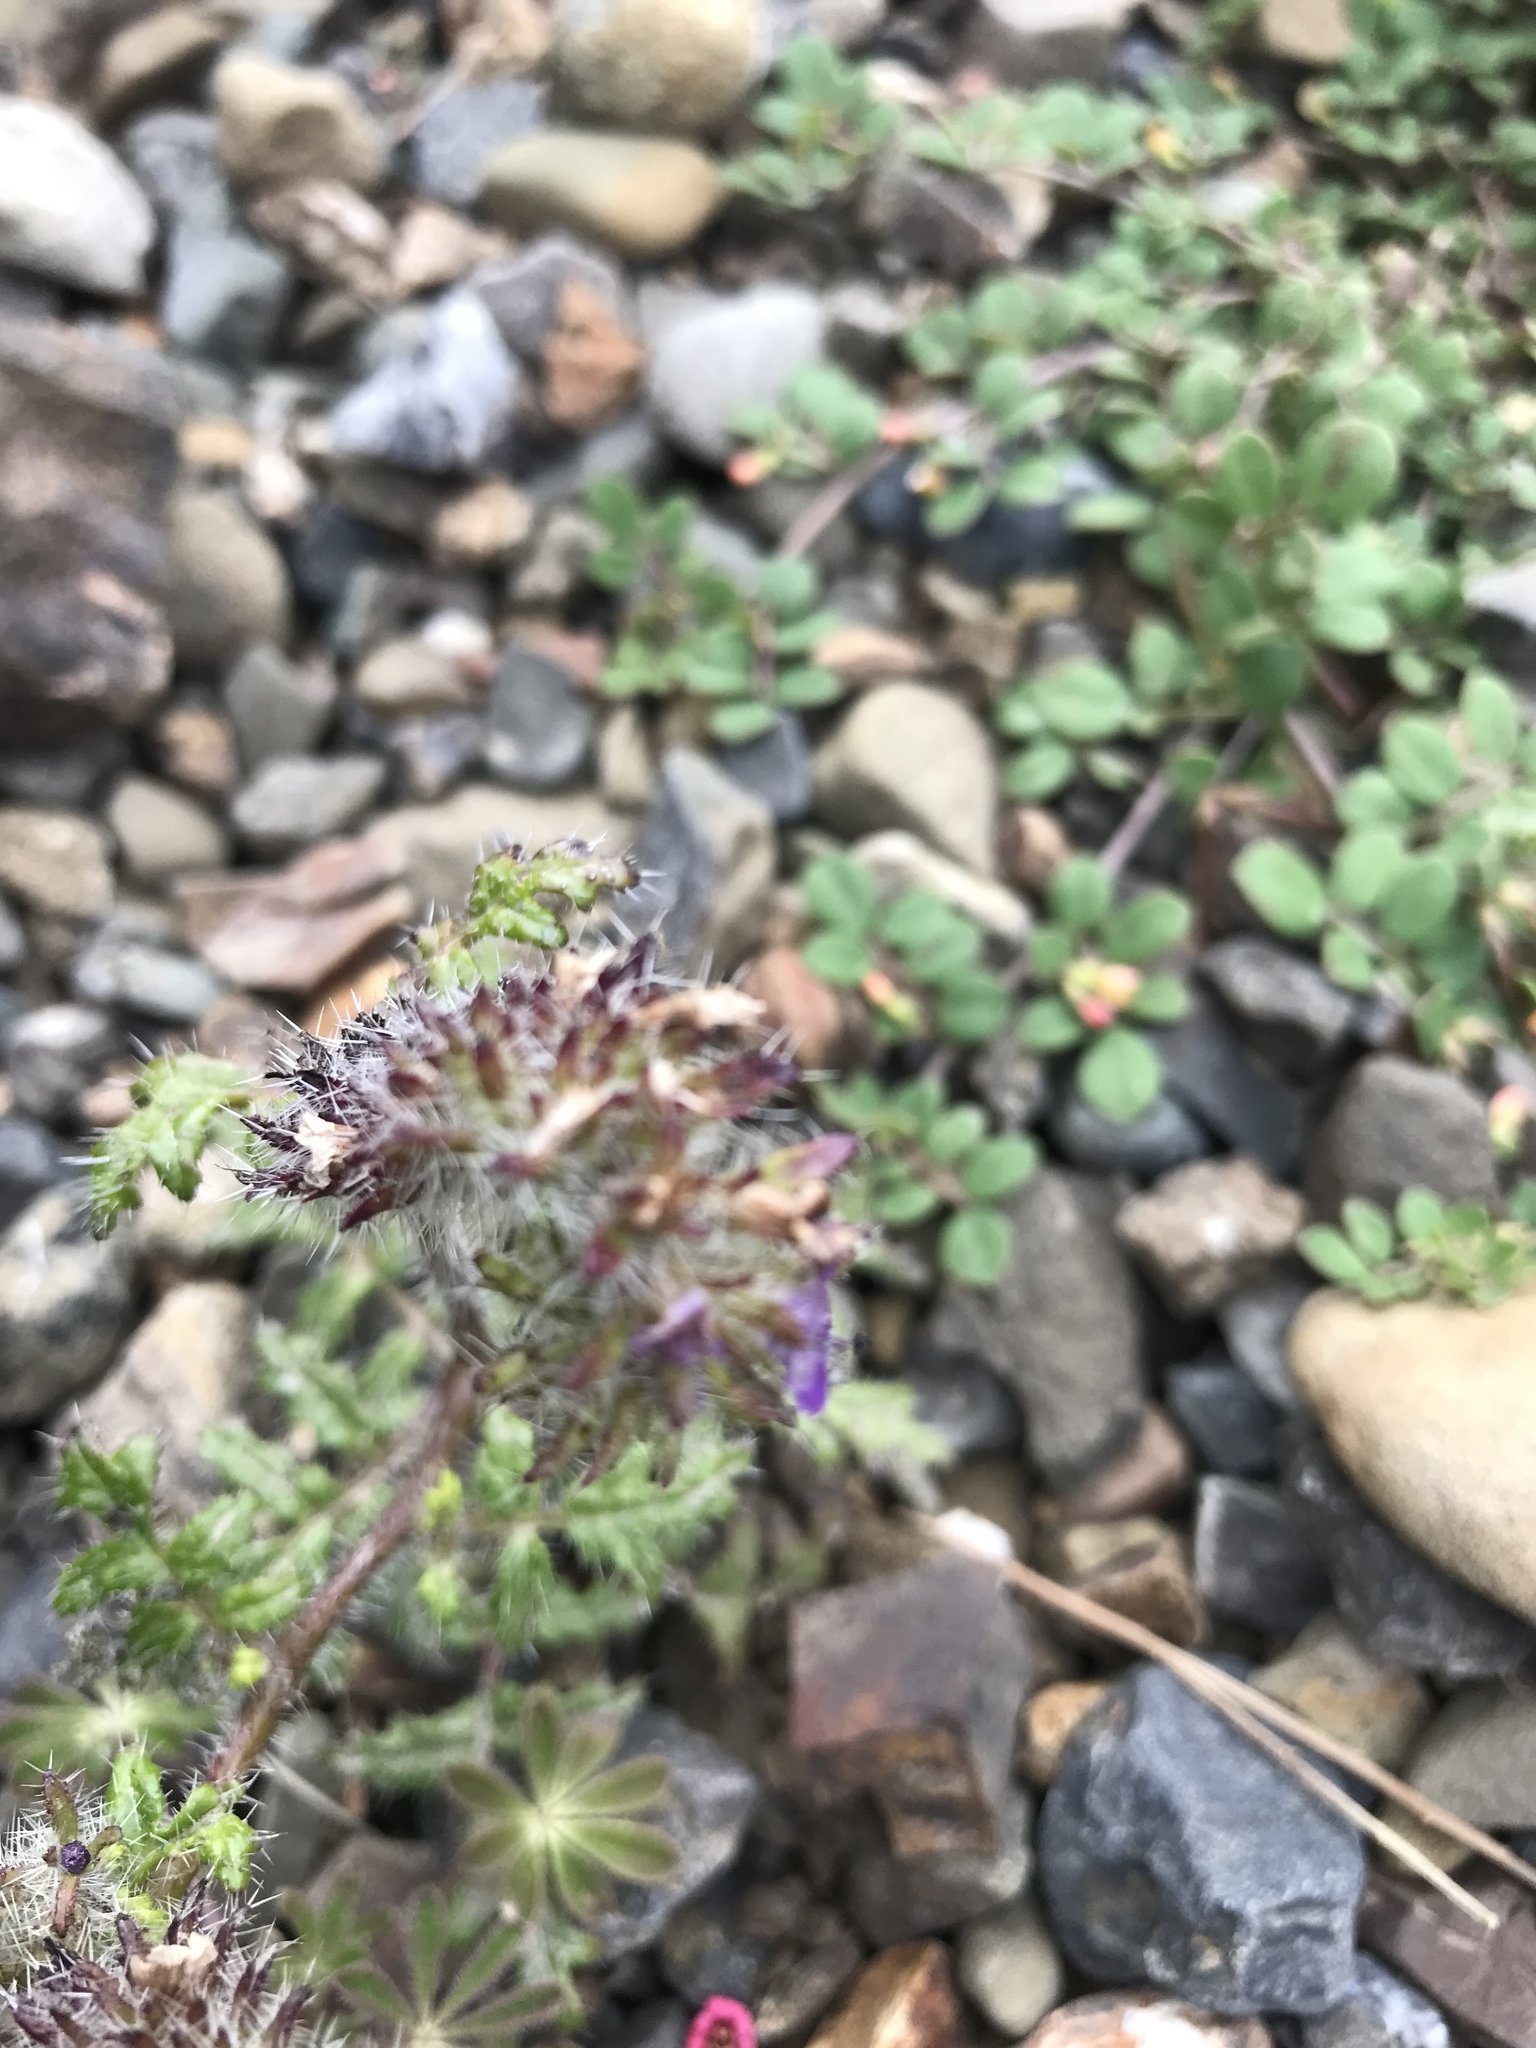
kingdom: Plantae
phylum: Tracheophyta
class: Magnoliopsida
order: Boraginales
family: Hydrophyllaceae
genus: Phacelia
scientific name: Phacelia cedrosensis
